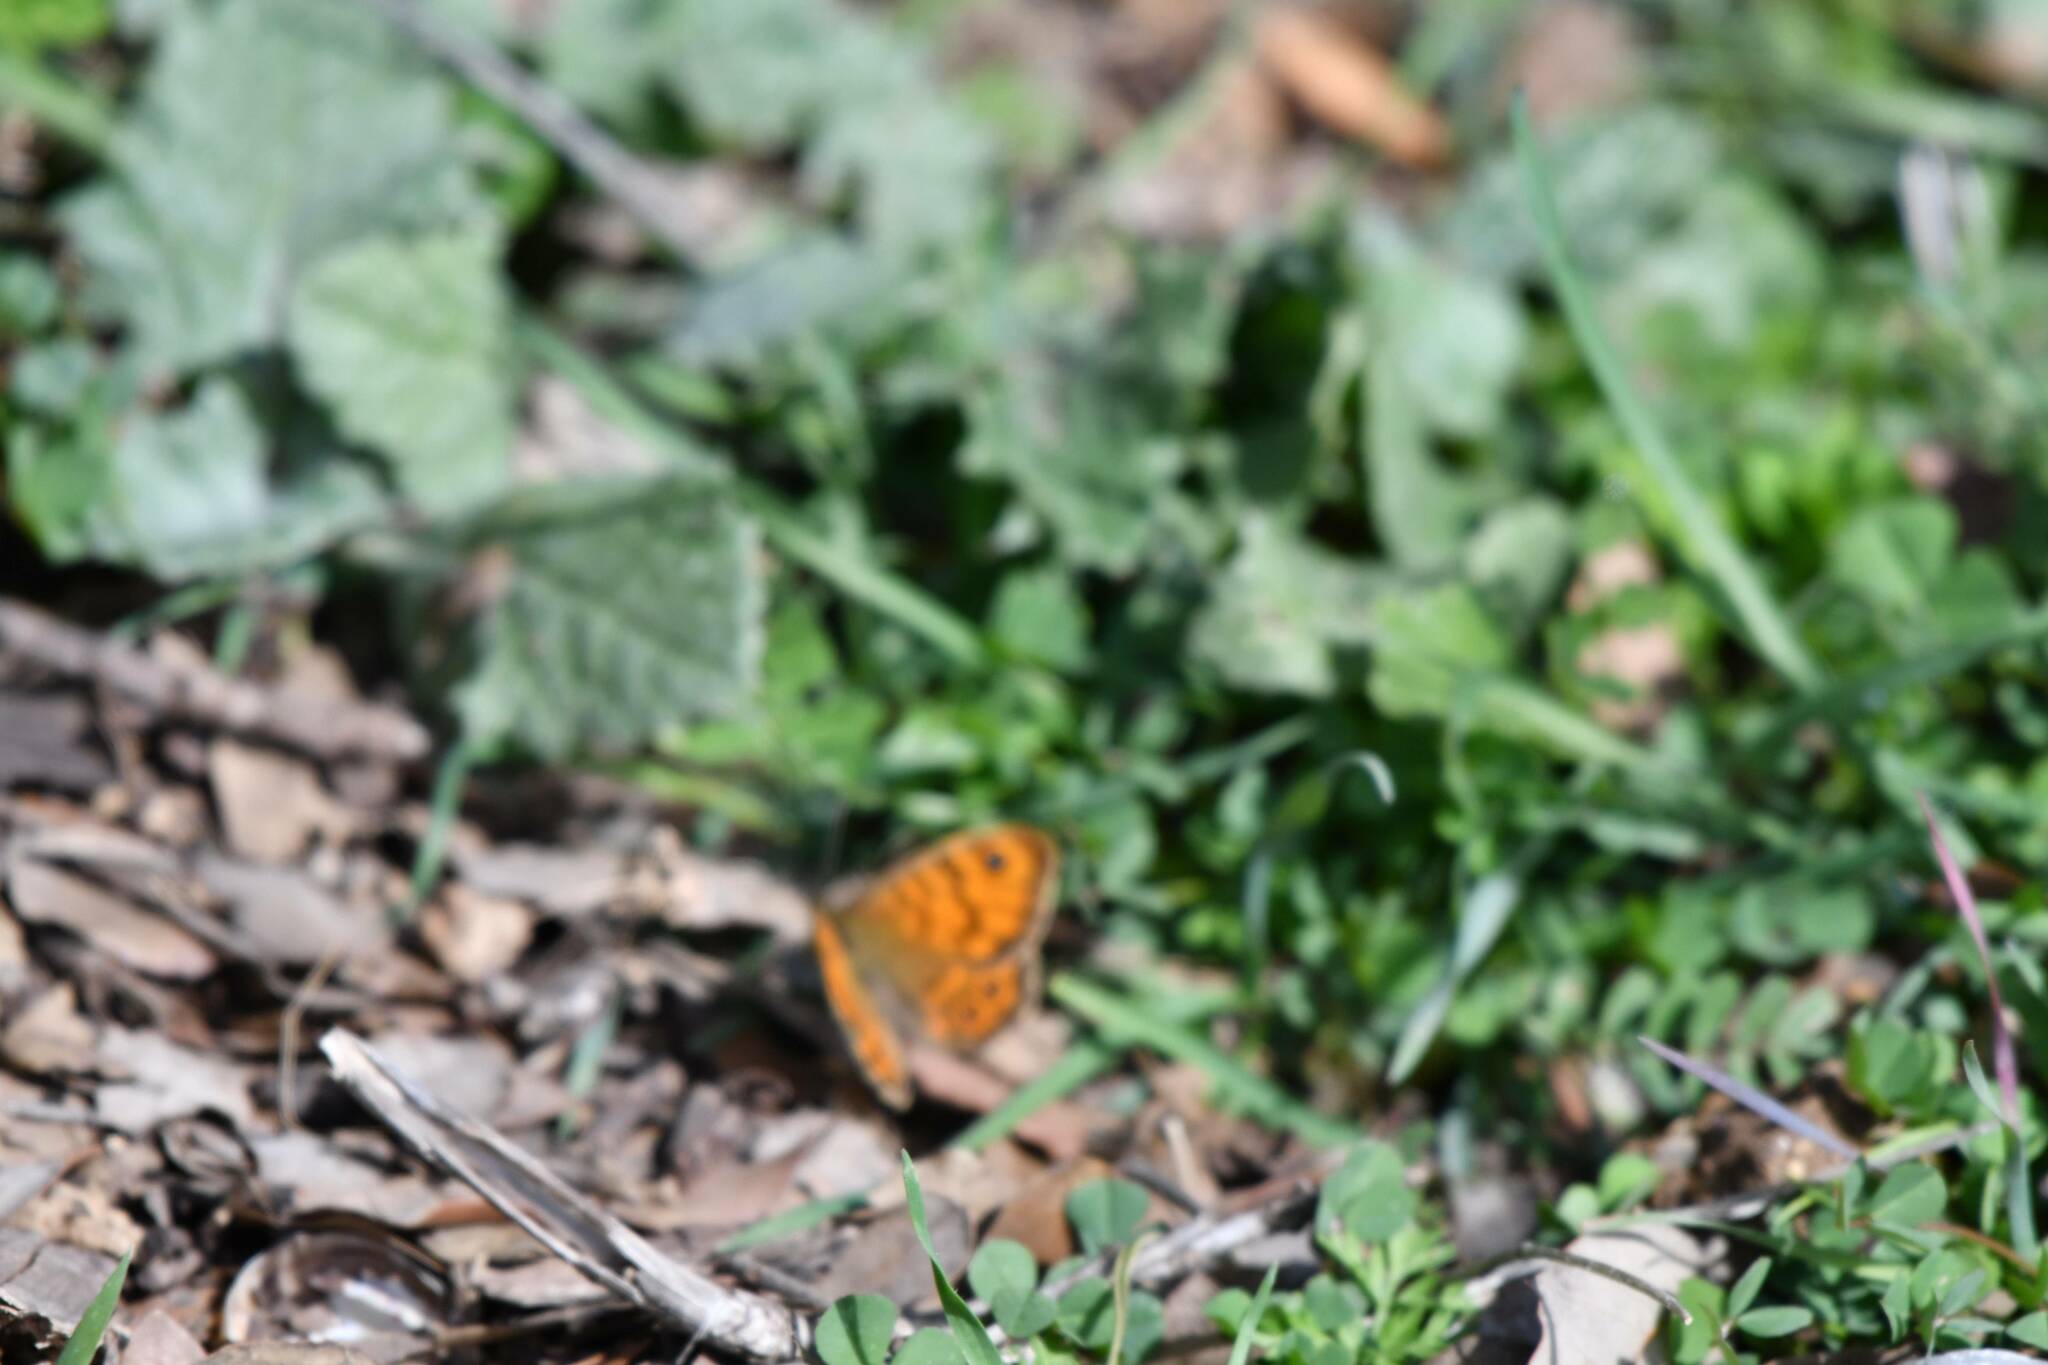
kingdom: Animalia
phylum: Arthropoda
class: Insecta
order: Lepidoptera
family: Nymphalidae
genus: Pararge
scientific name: Pararge Lasiommata megera
